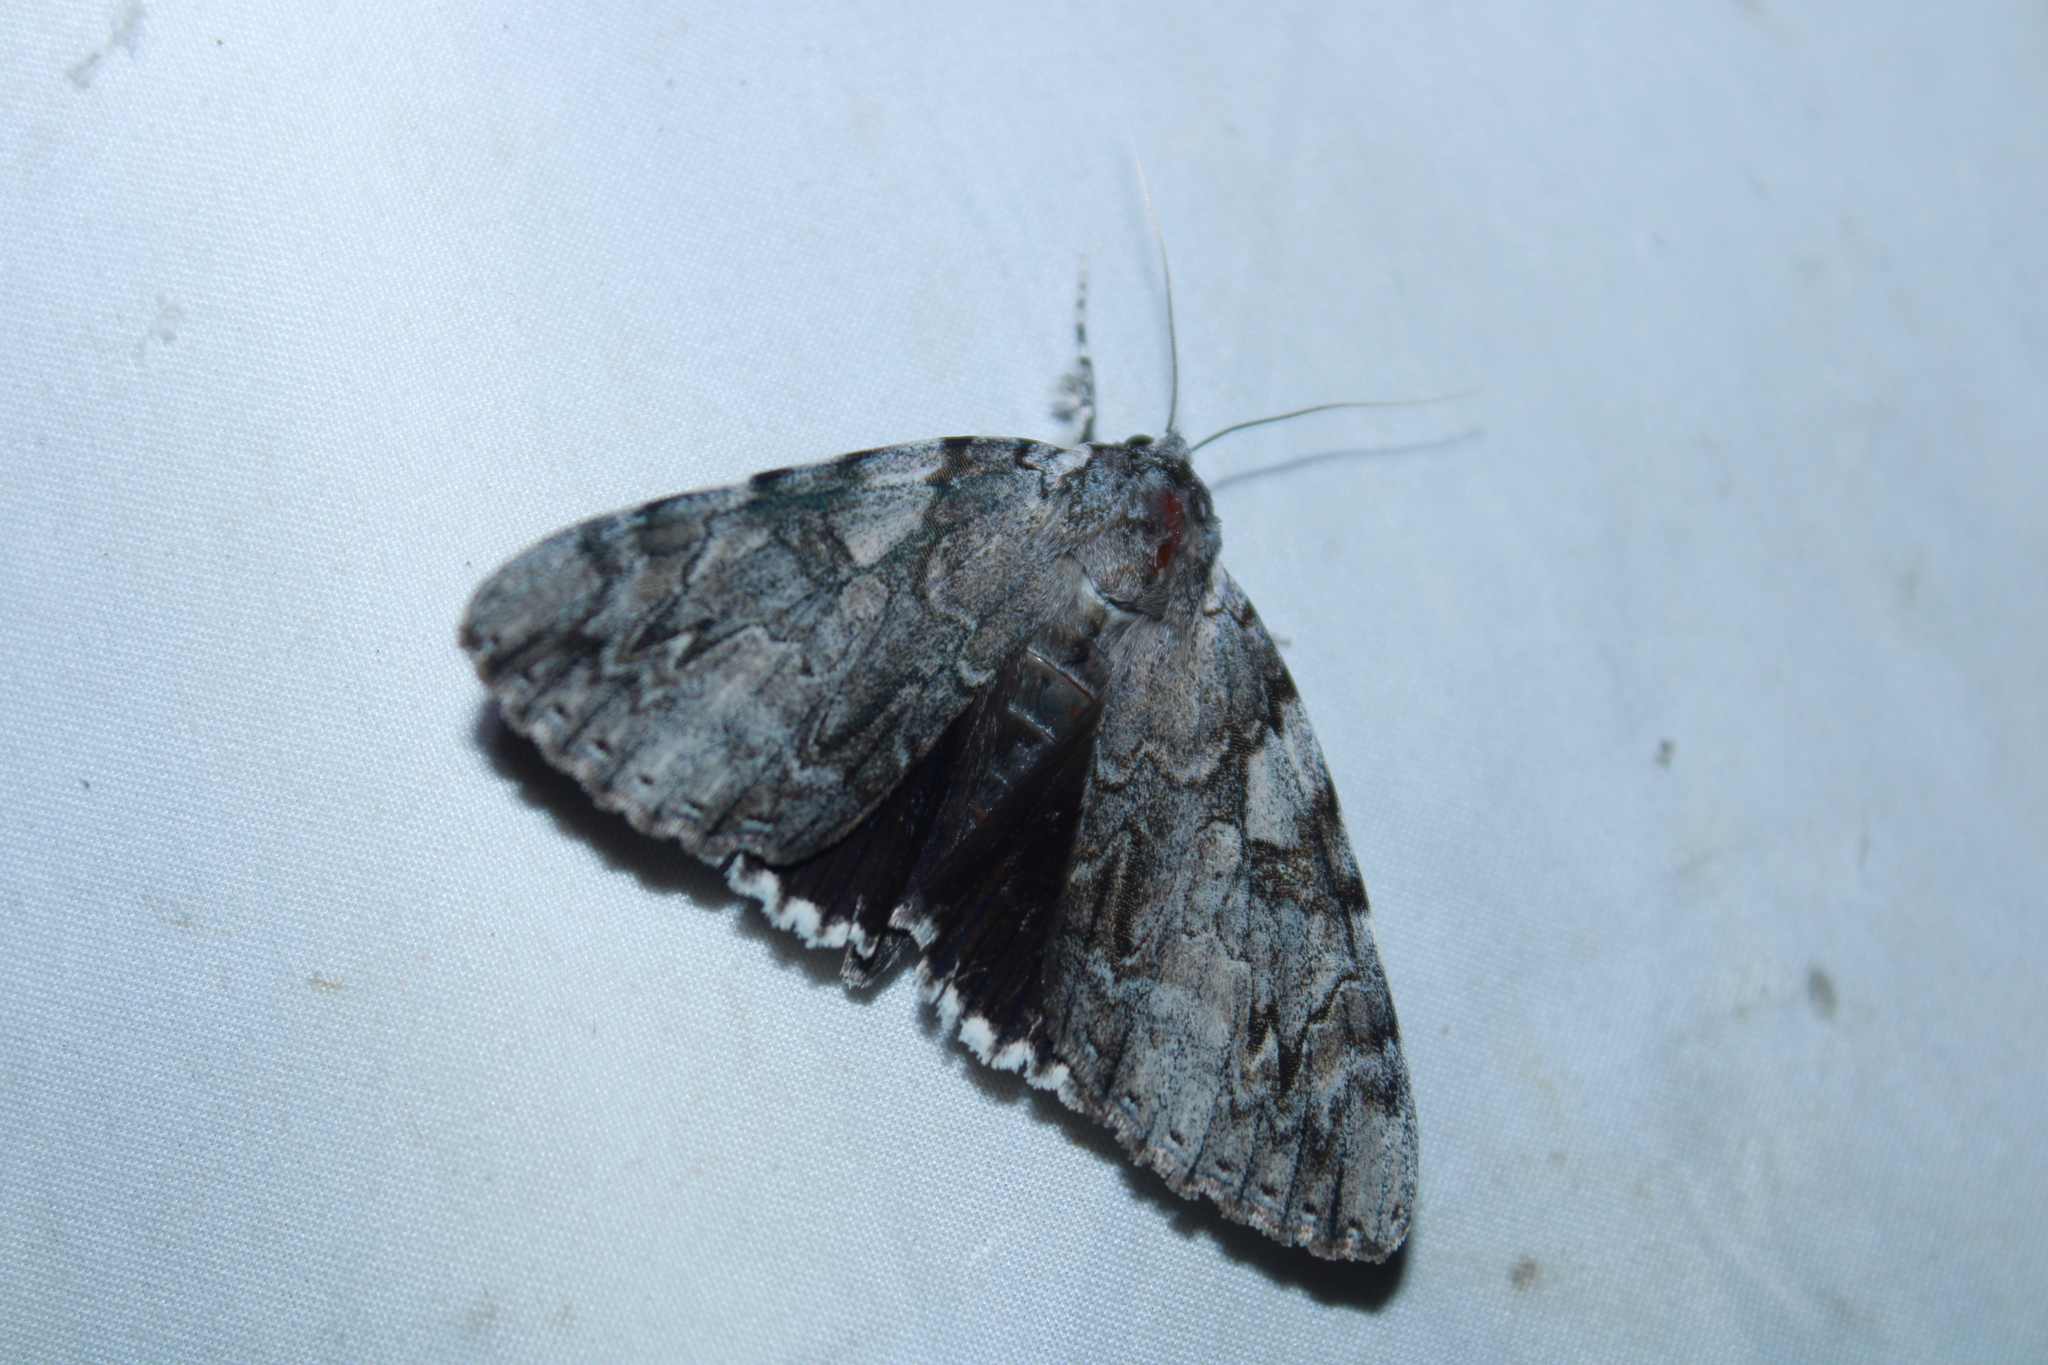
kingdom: Animalia
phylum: Arthropoda
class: Insecta
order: Lepidoptera
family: Erebidae
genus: Catocala
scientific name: Catocala dejecta
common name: Dejected underwing
